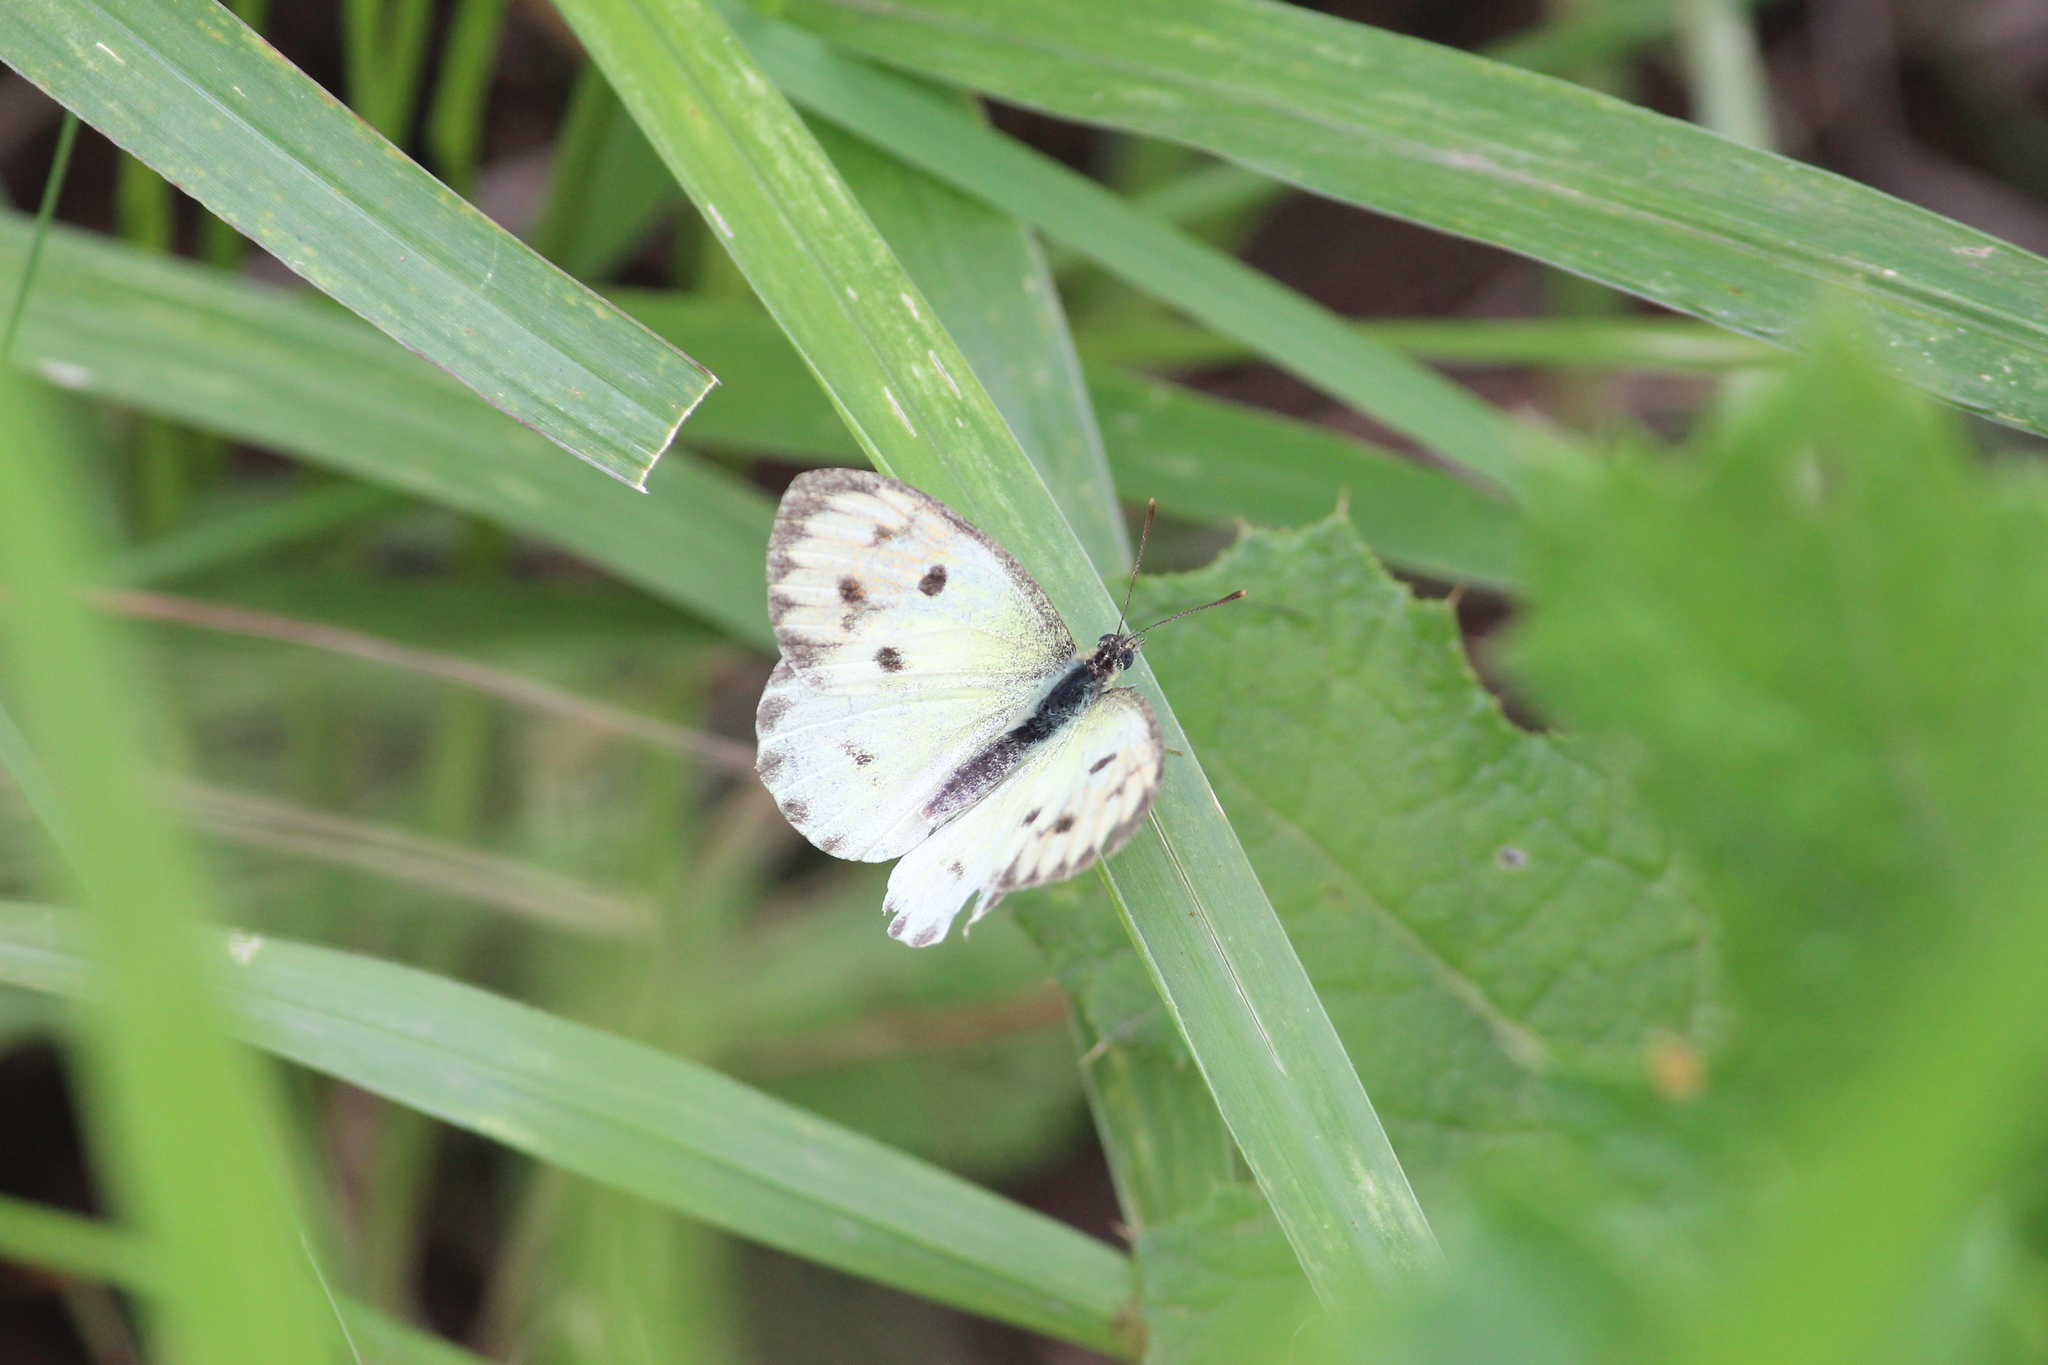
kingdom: Animalia
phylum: Arthropoda
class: Insecta
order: Lepidoptera
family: Pieridae
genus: Colotis
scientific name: Colotis auxo
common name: Sulphur orange tip
